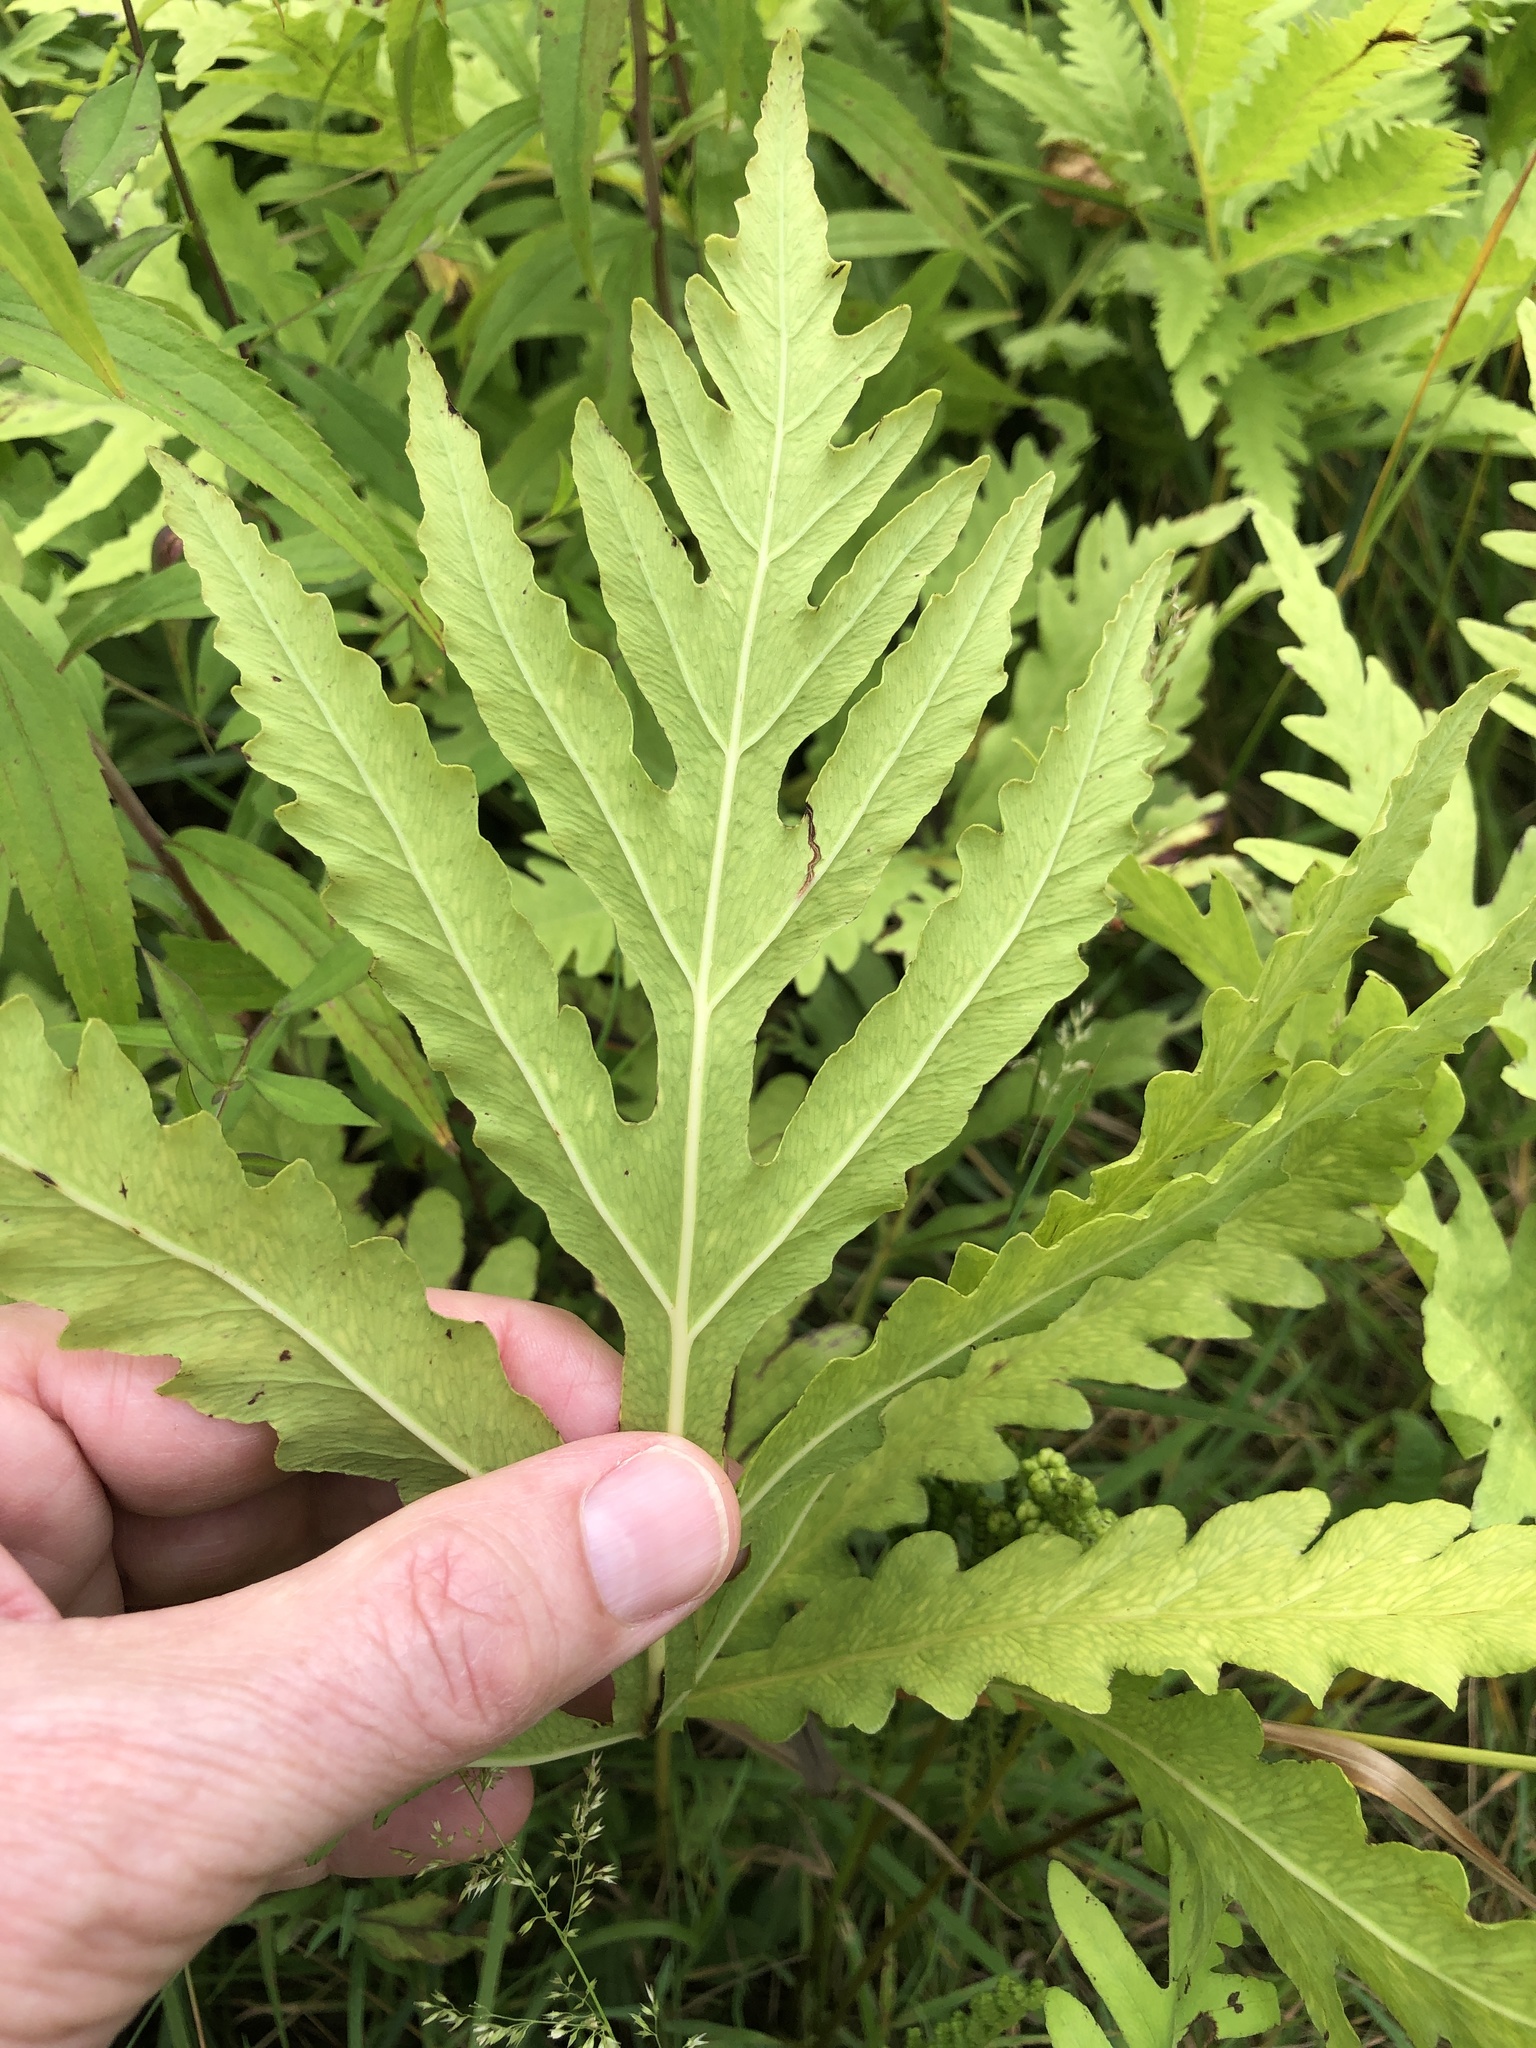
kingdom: Plantae
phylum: Tracheophyta
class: Polypodiopsida
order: Polypodiales
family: Onocleaceae
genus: Onoclea
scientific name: Onoclea sensibilis
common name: Sensitive fern
